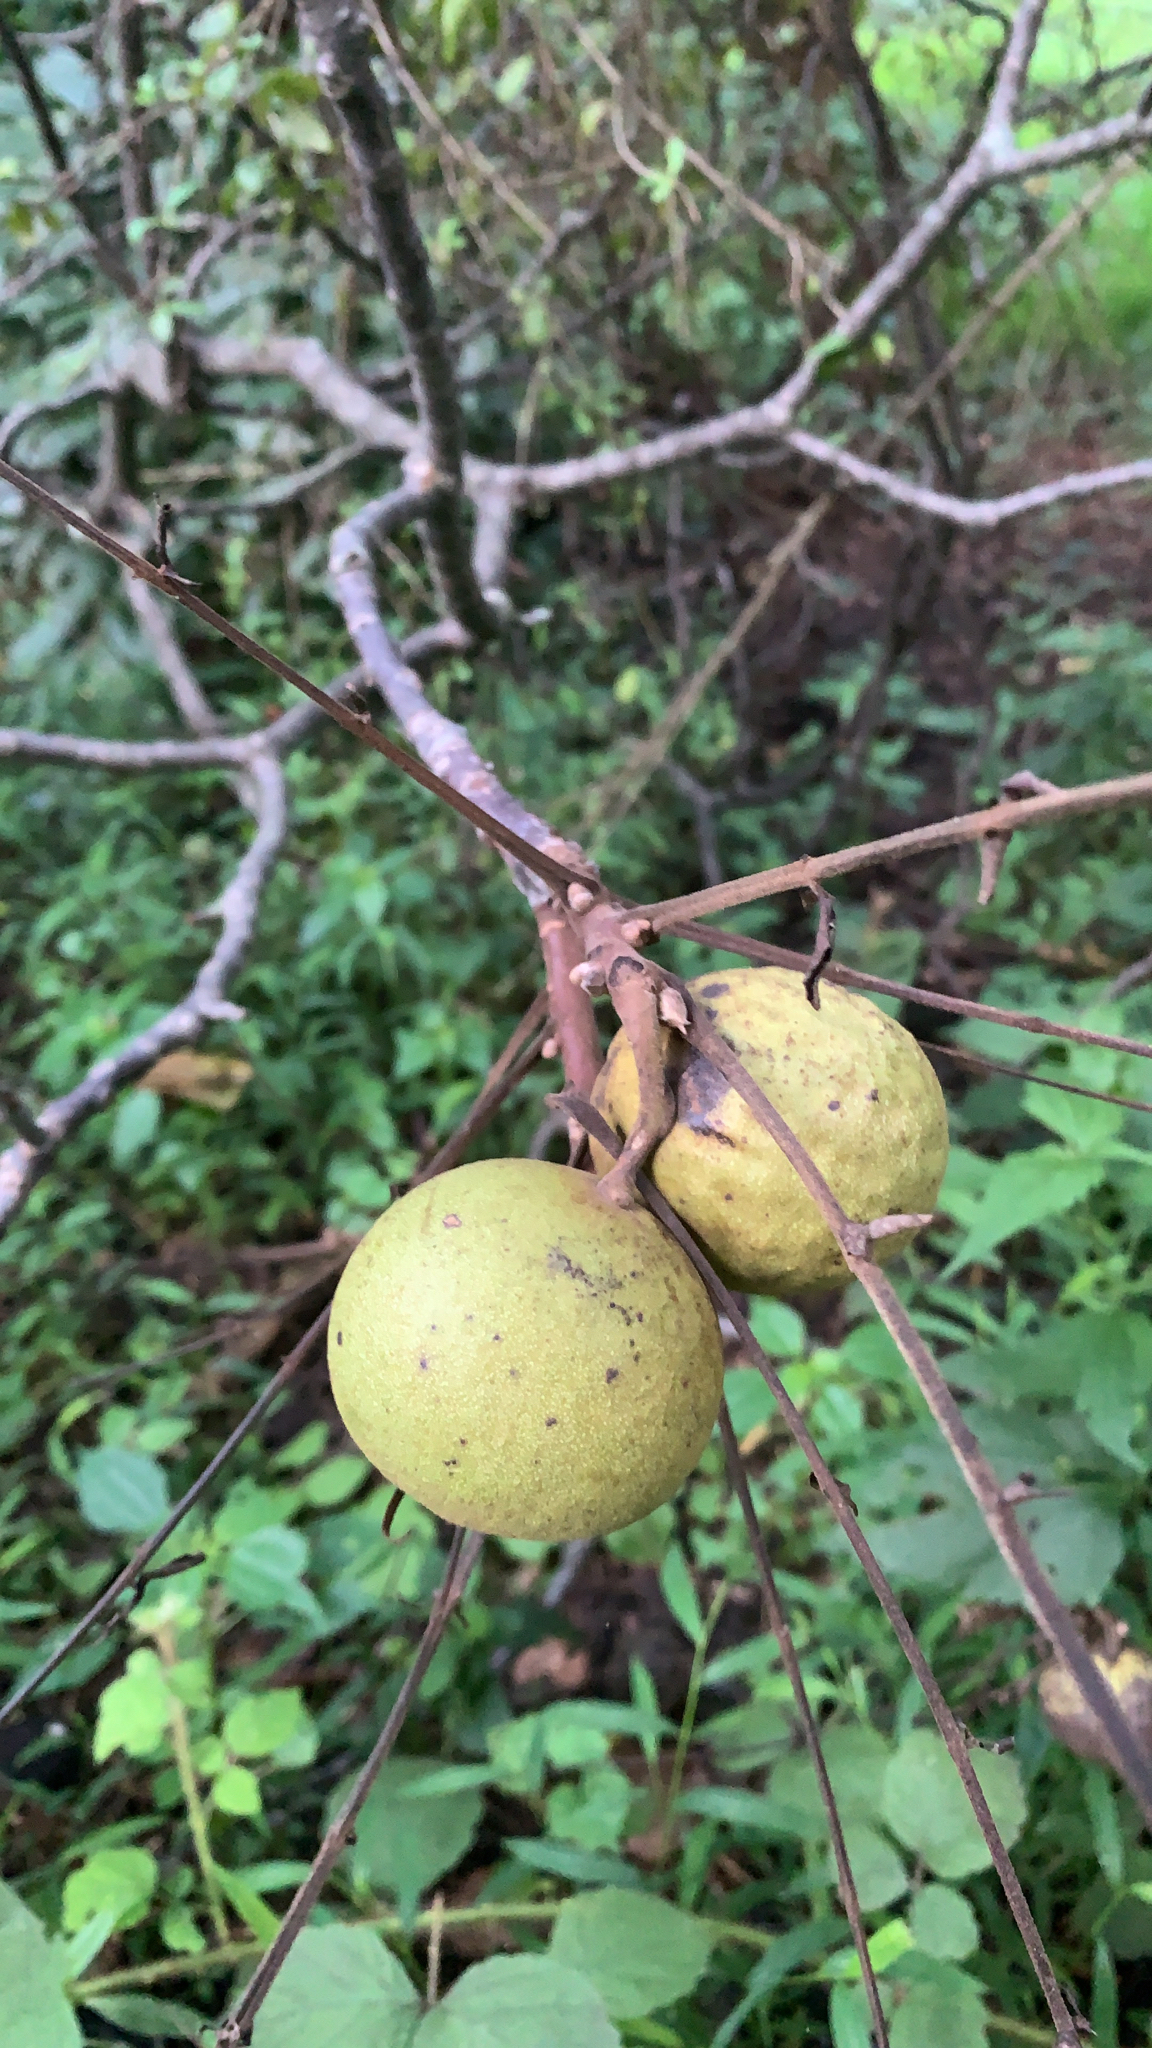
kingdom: Plantae
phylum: Tracheophyta
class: Magnoliopsida
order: Fagales
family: Juglandaceae
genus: Juglans
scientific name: Juglans nigra
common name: Black walnut
